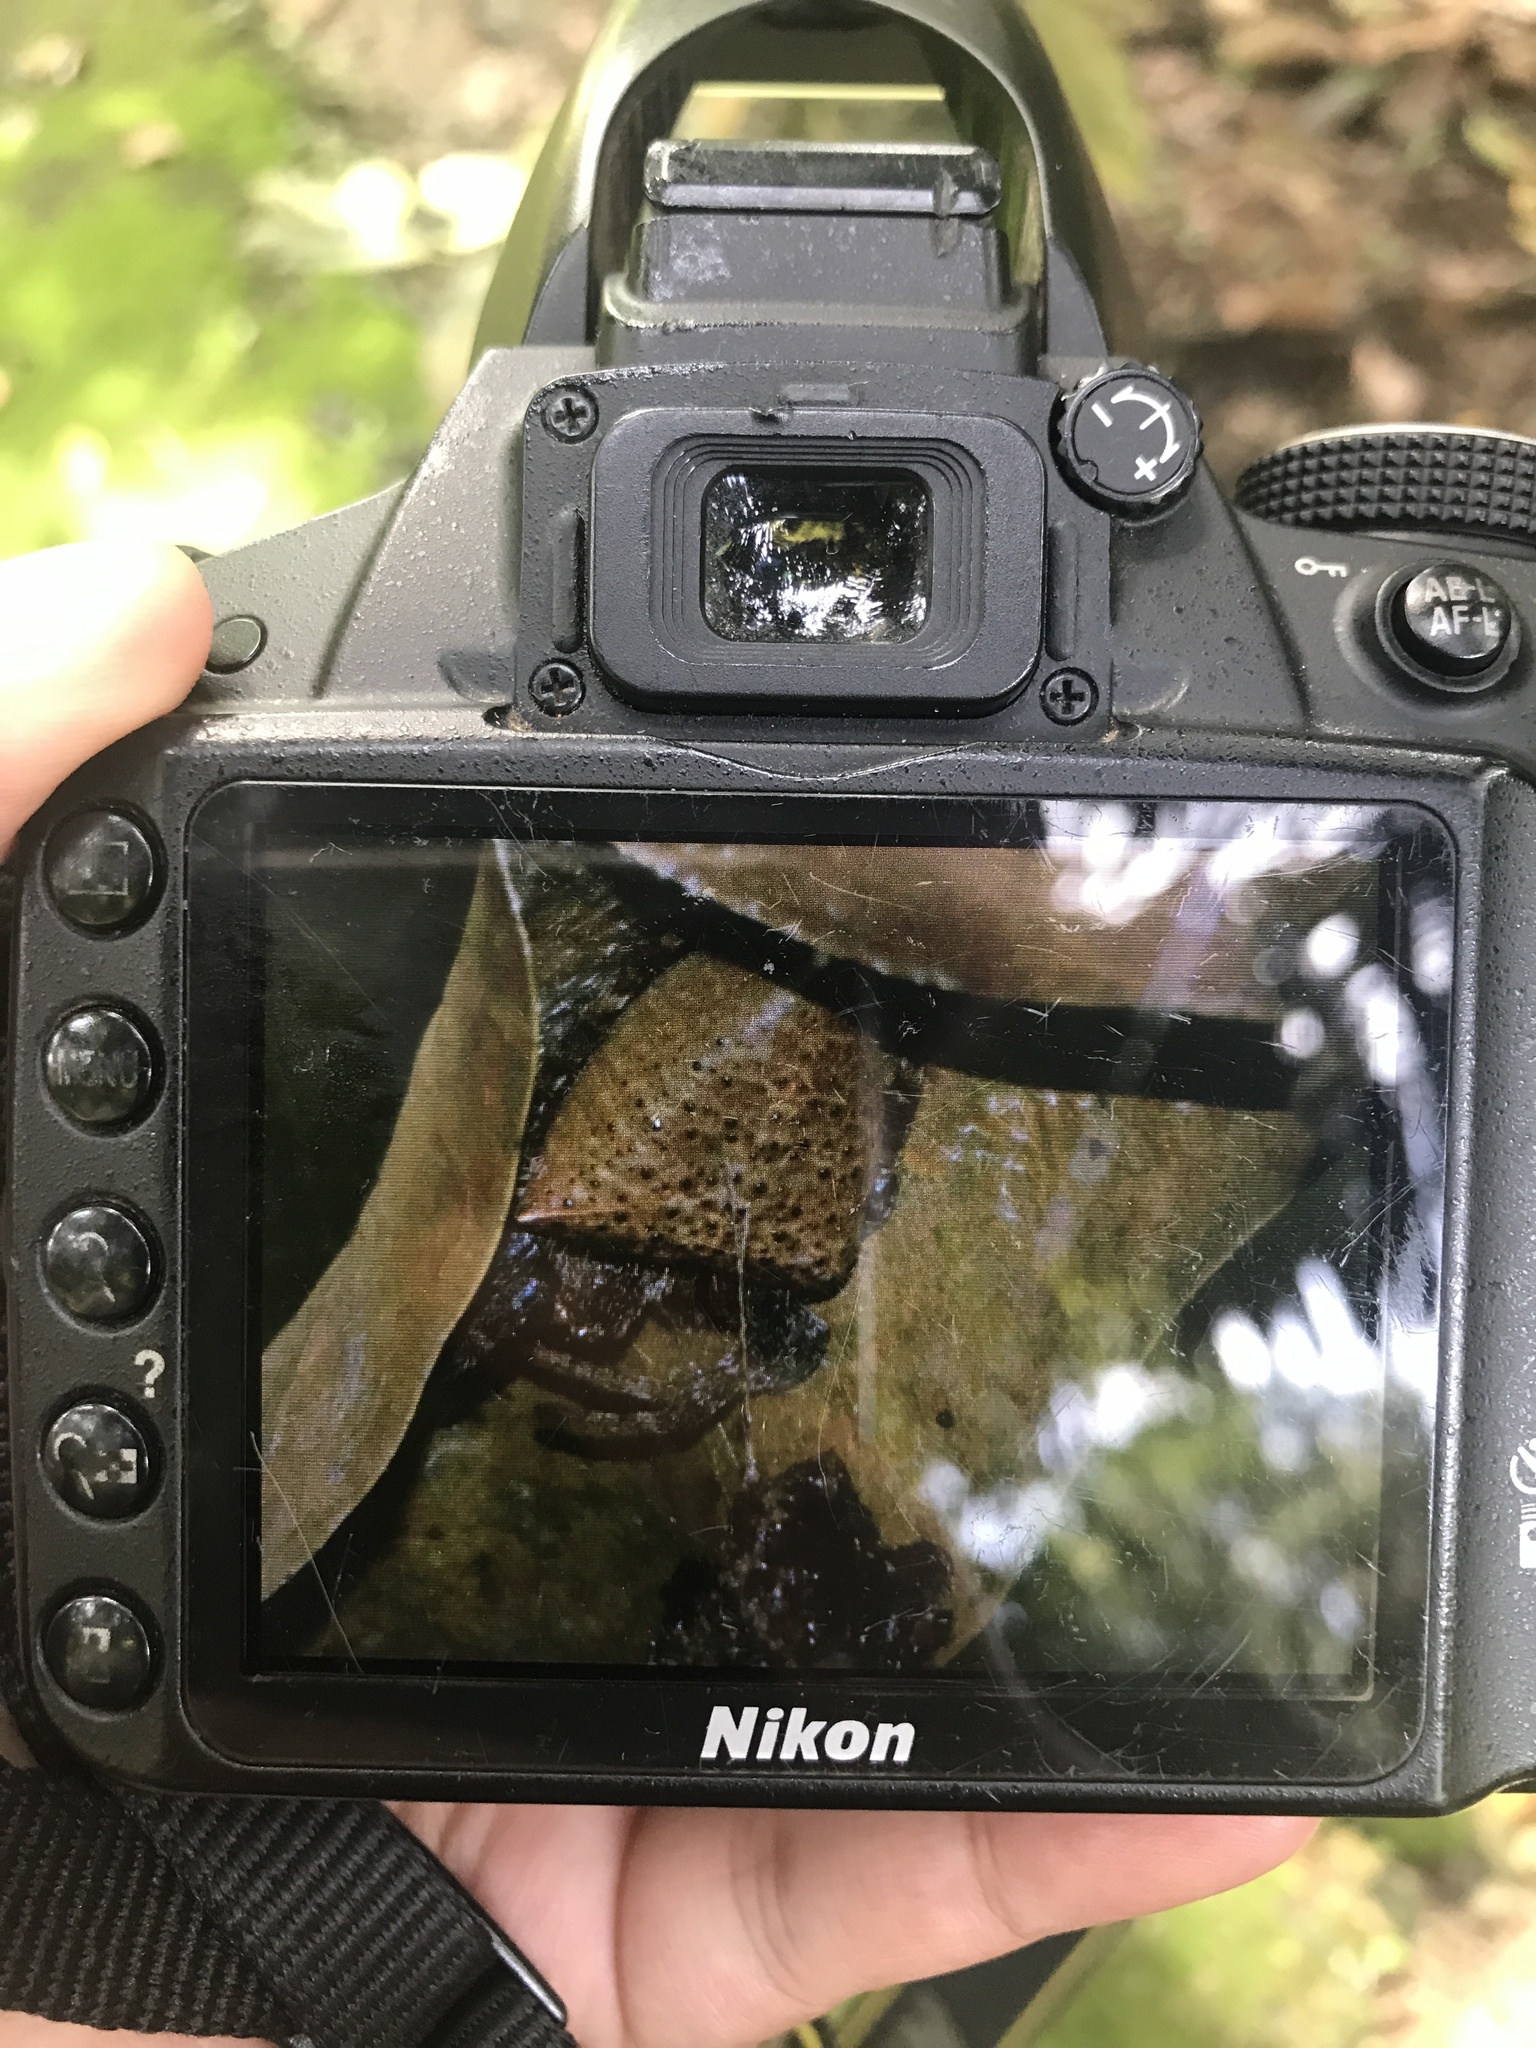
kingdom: Animalia
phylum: Arthropoda
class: Arachnida
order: Araneae
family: Araneidae
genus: Cyrtophora
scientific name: Cyrtophora unicolor
